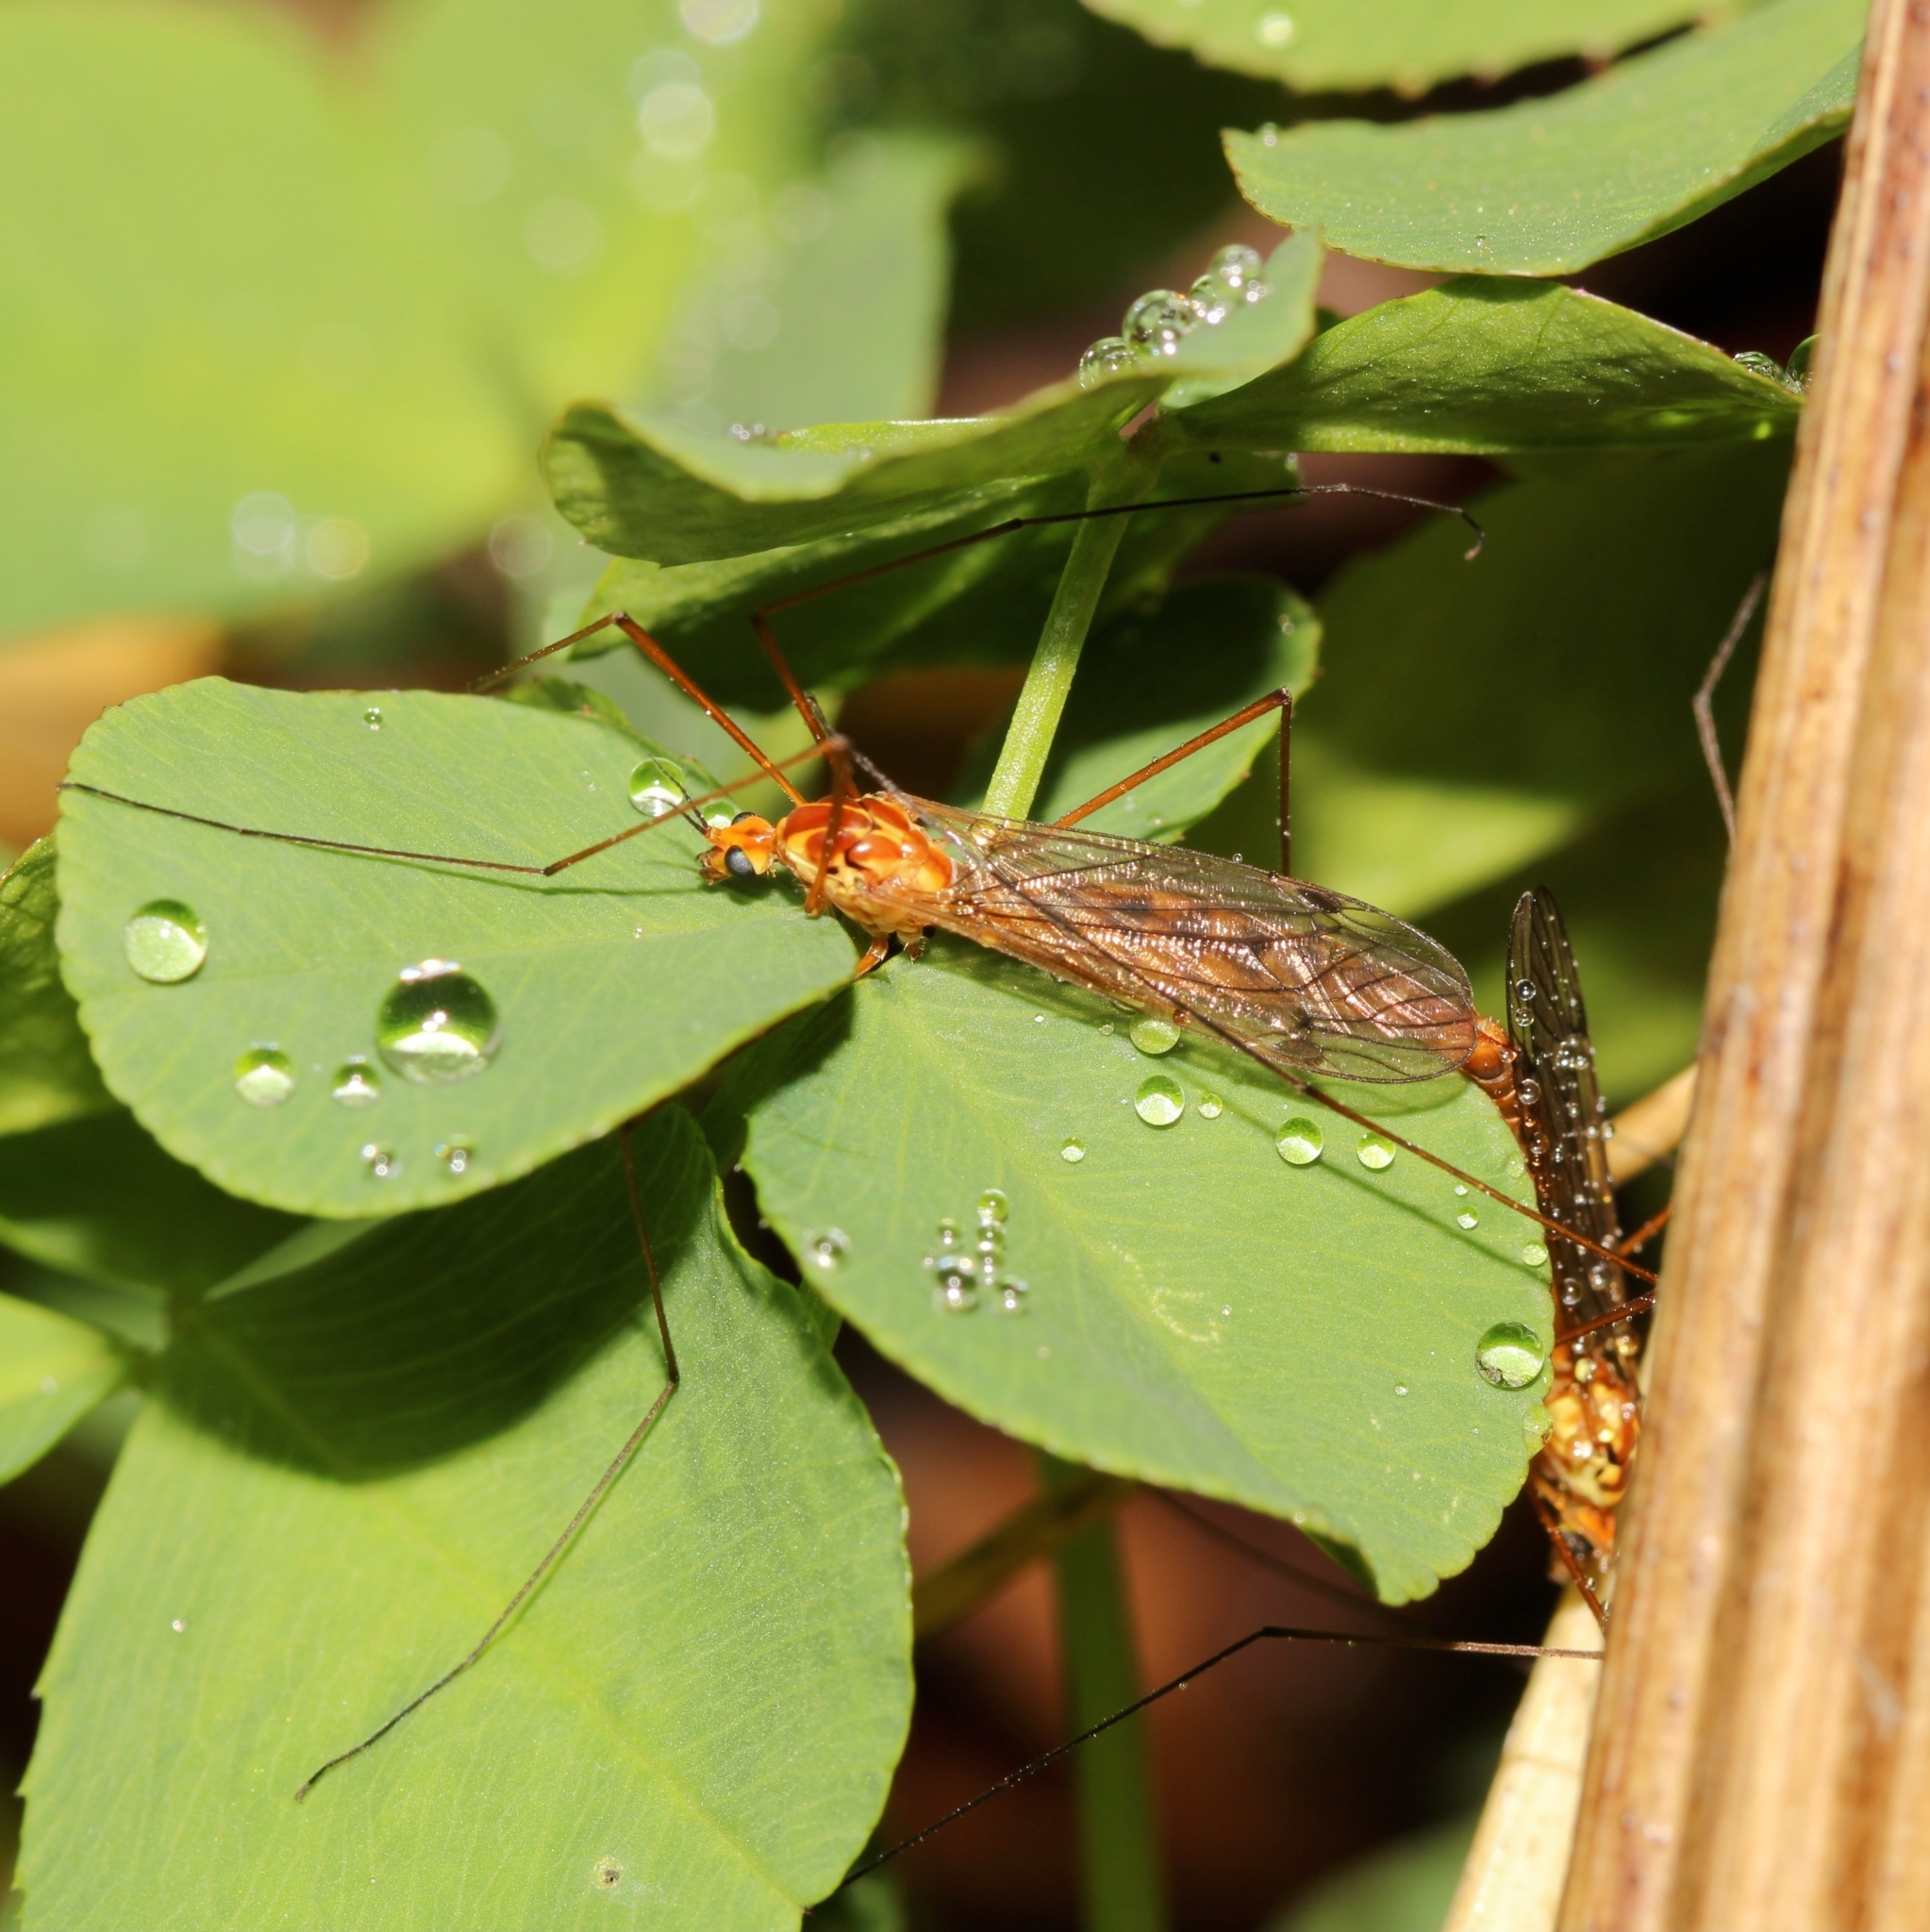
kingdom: Animalia
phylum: Arthropoda
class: Insecta
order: Diptera
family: Tipulidae
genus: Nephrotoma
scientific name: Nephrotoma ferruginea
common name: Ferruginous tiger crane fly
